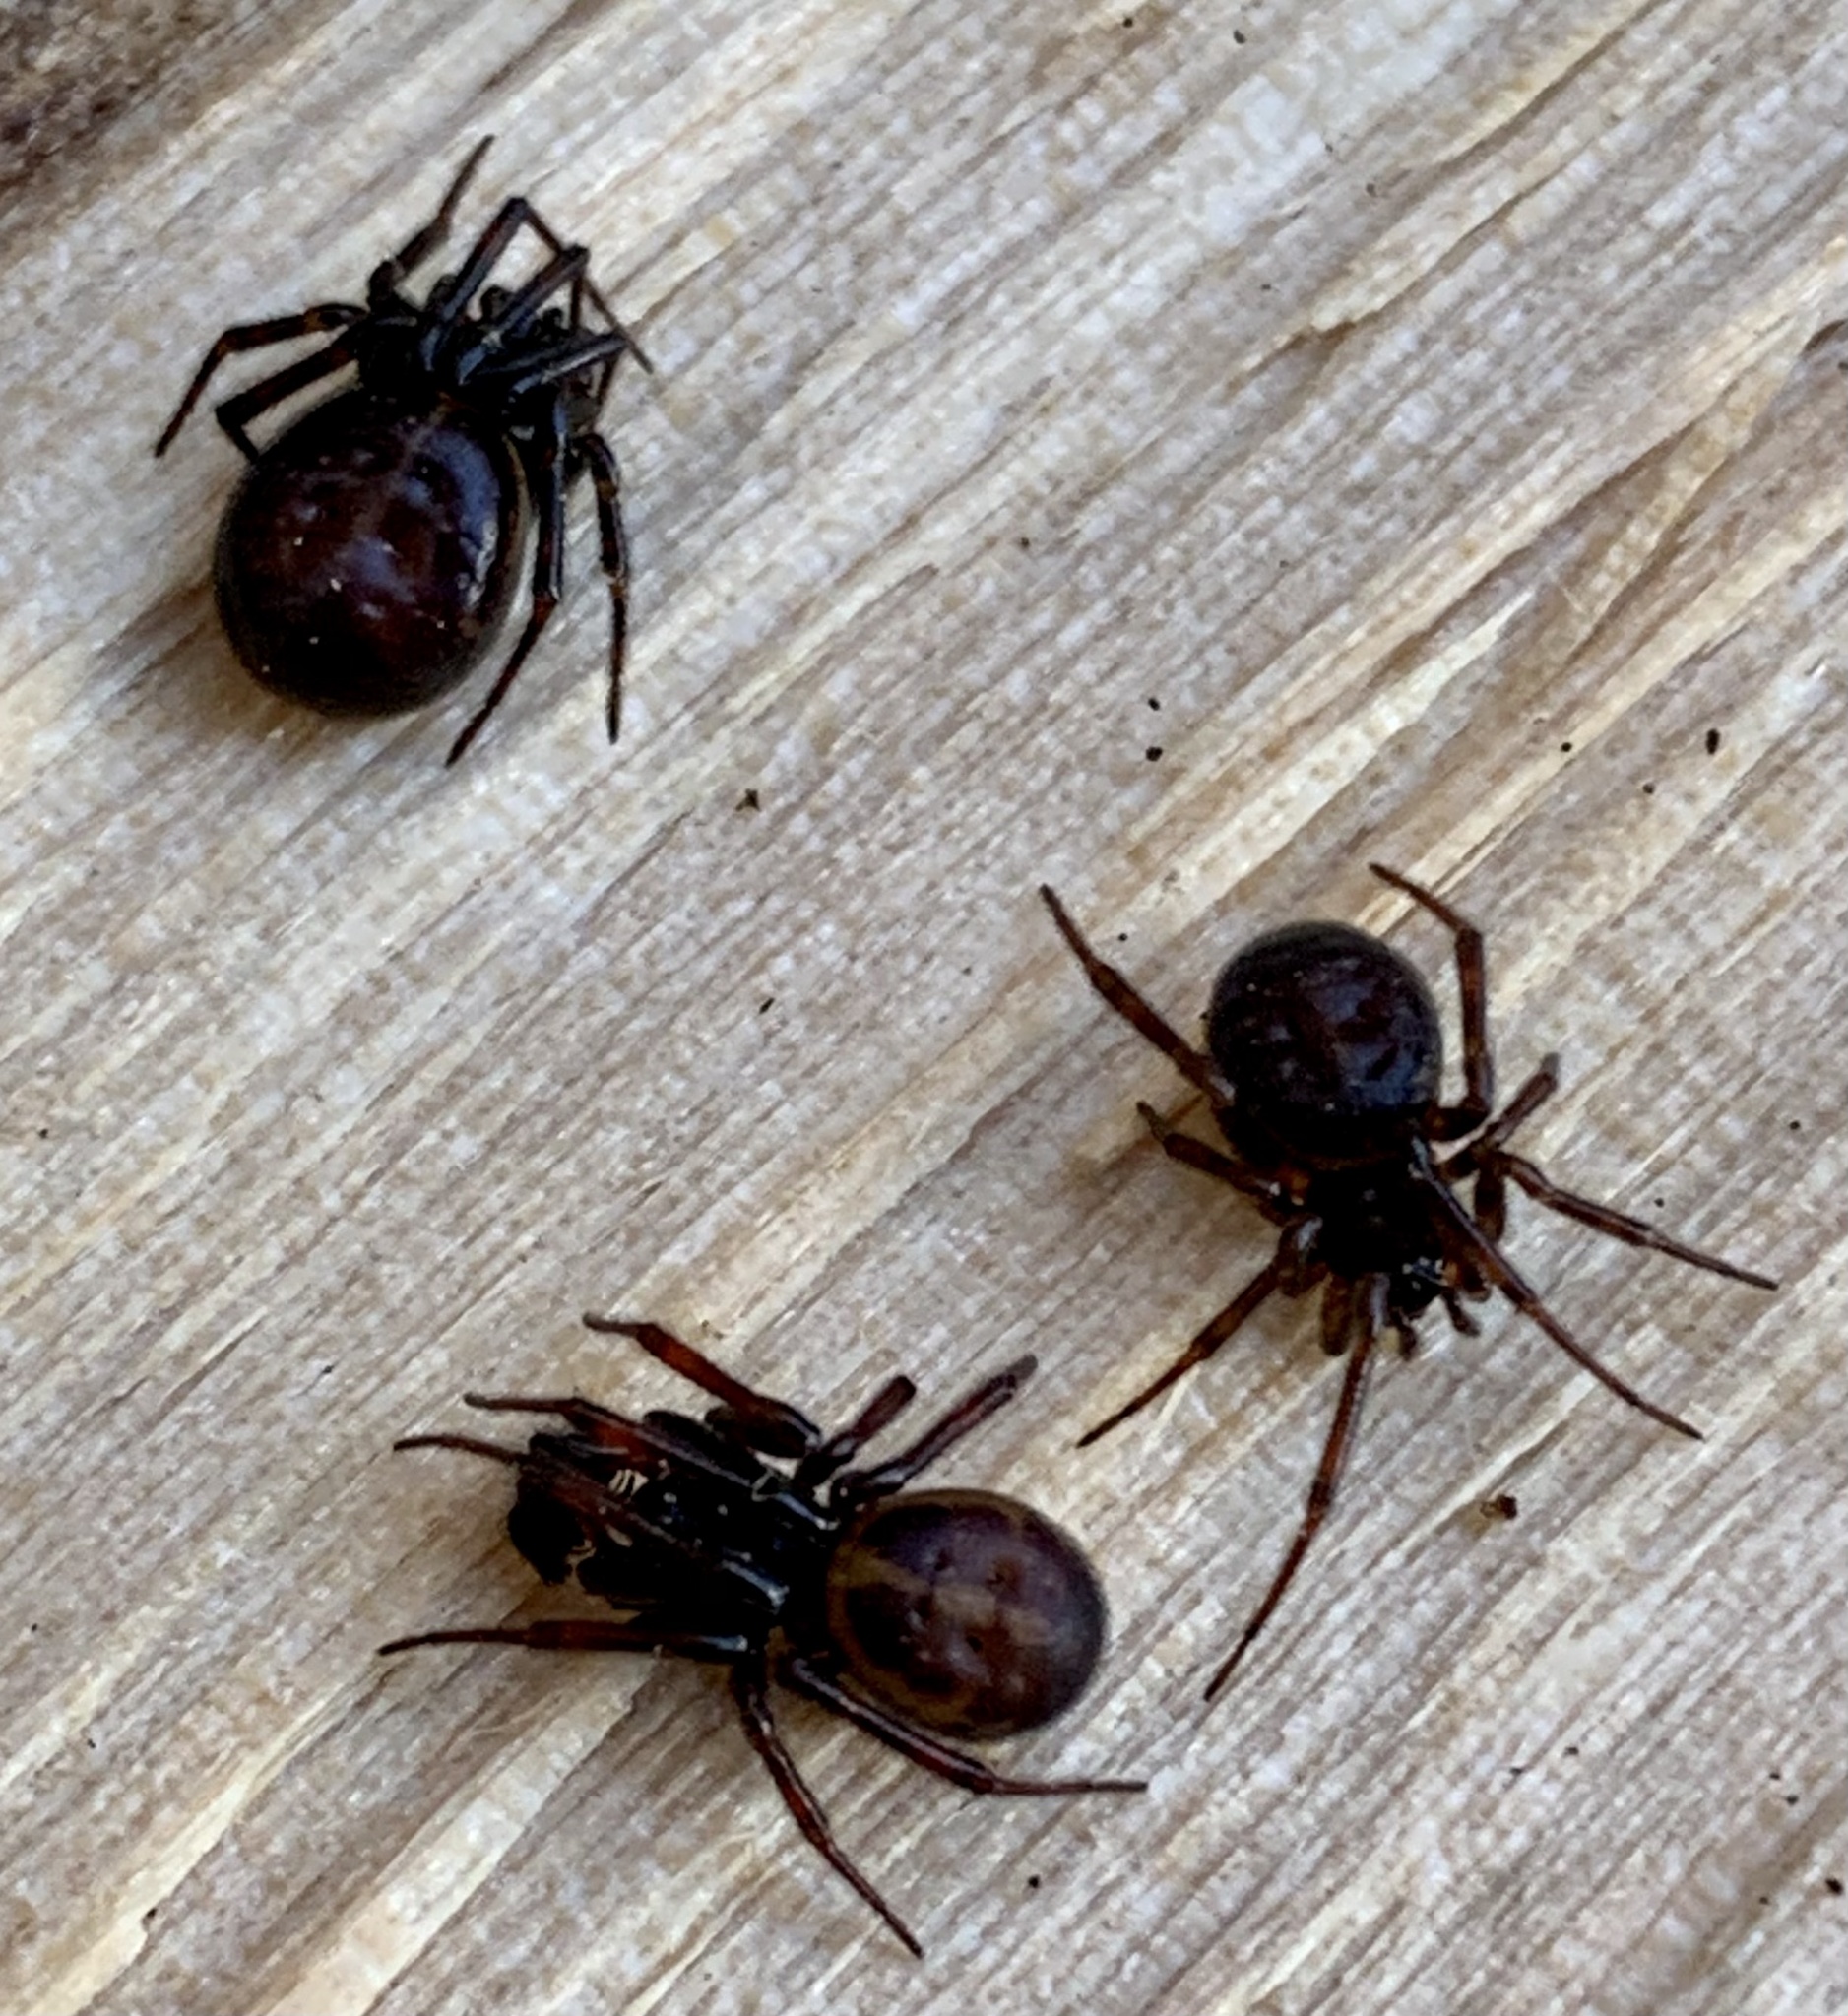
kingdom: Animalia
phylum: Arthropoda
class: Arachnida
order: Araneae
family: Theridiidae
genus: Steatoda
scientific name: Steatoda borealis
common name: Boreal combfoot
